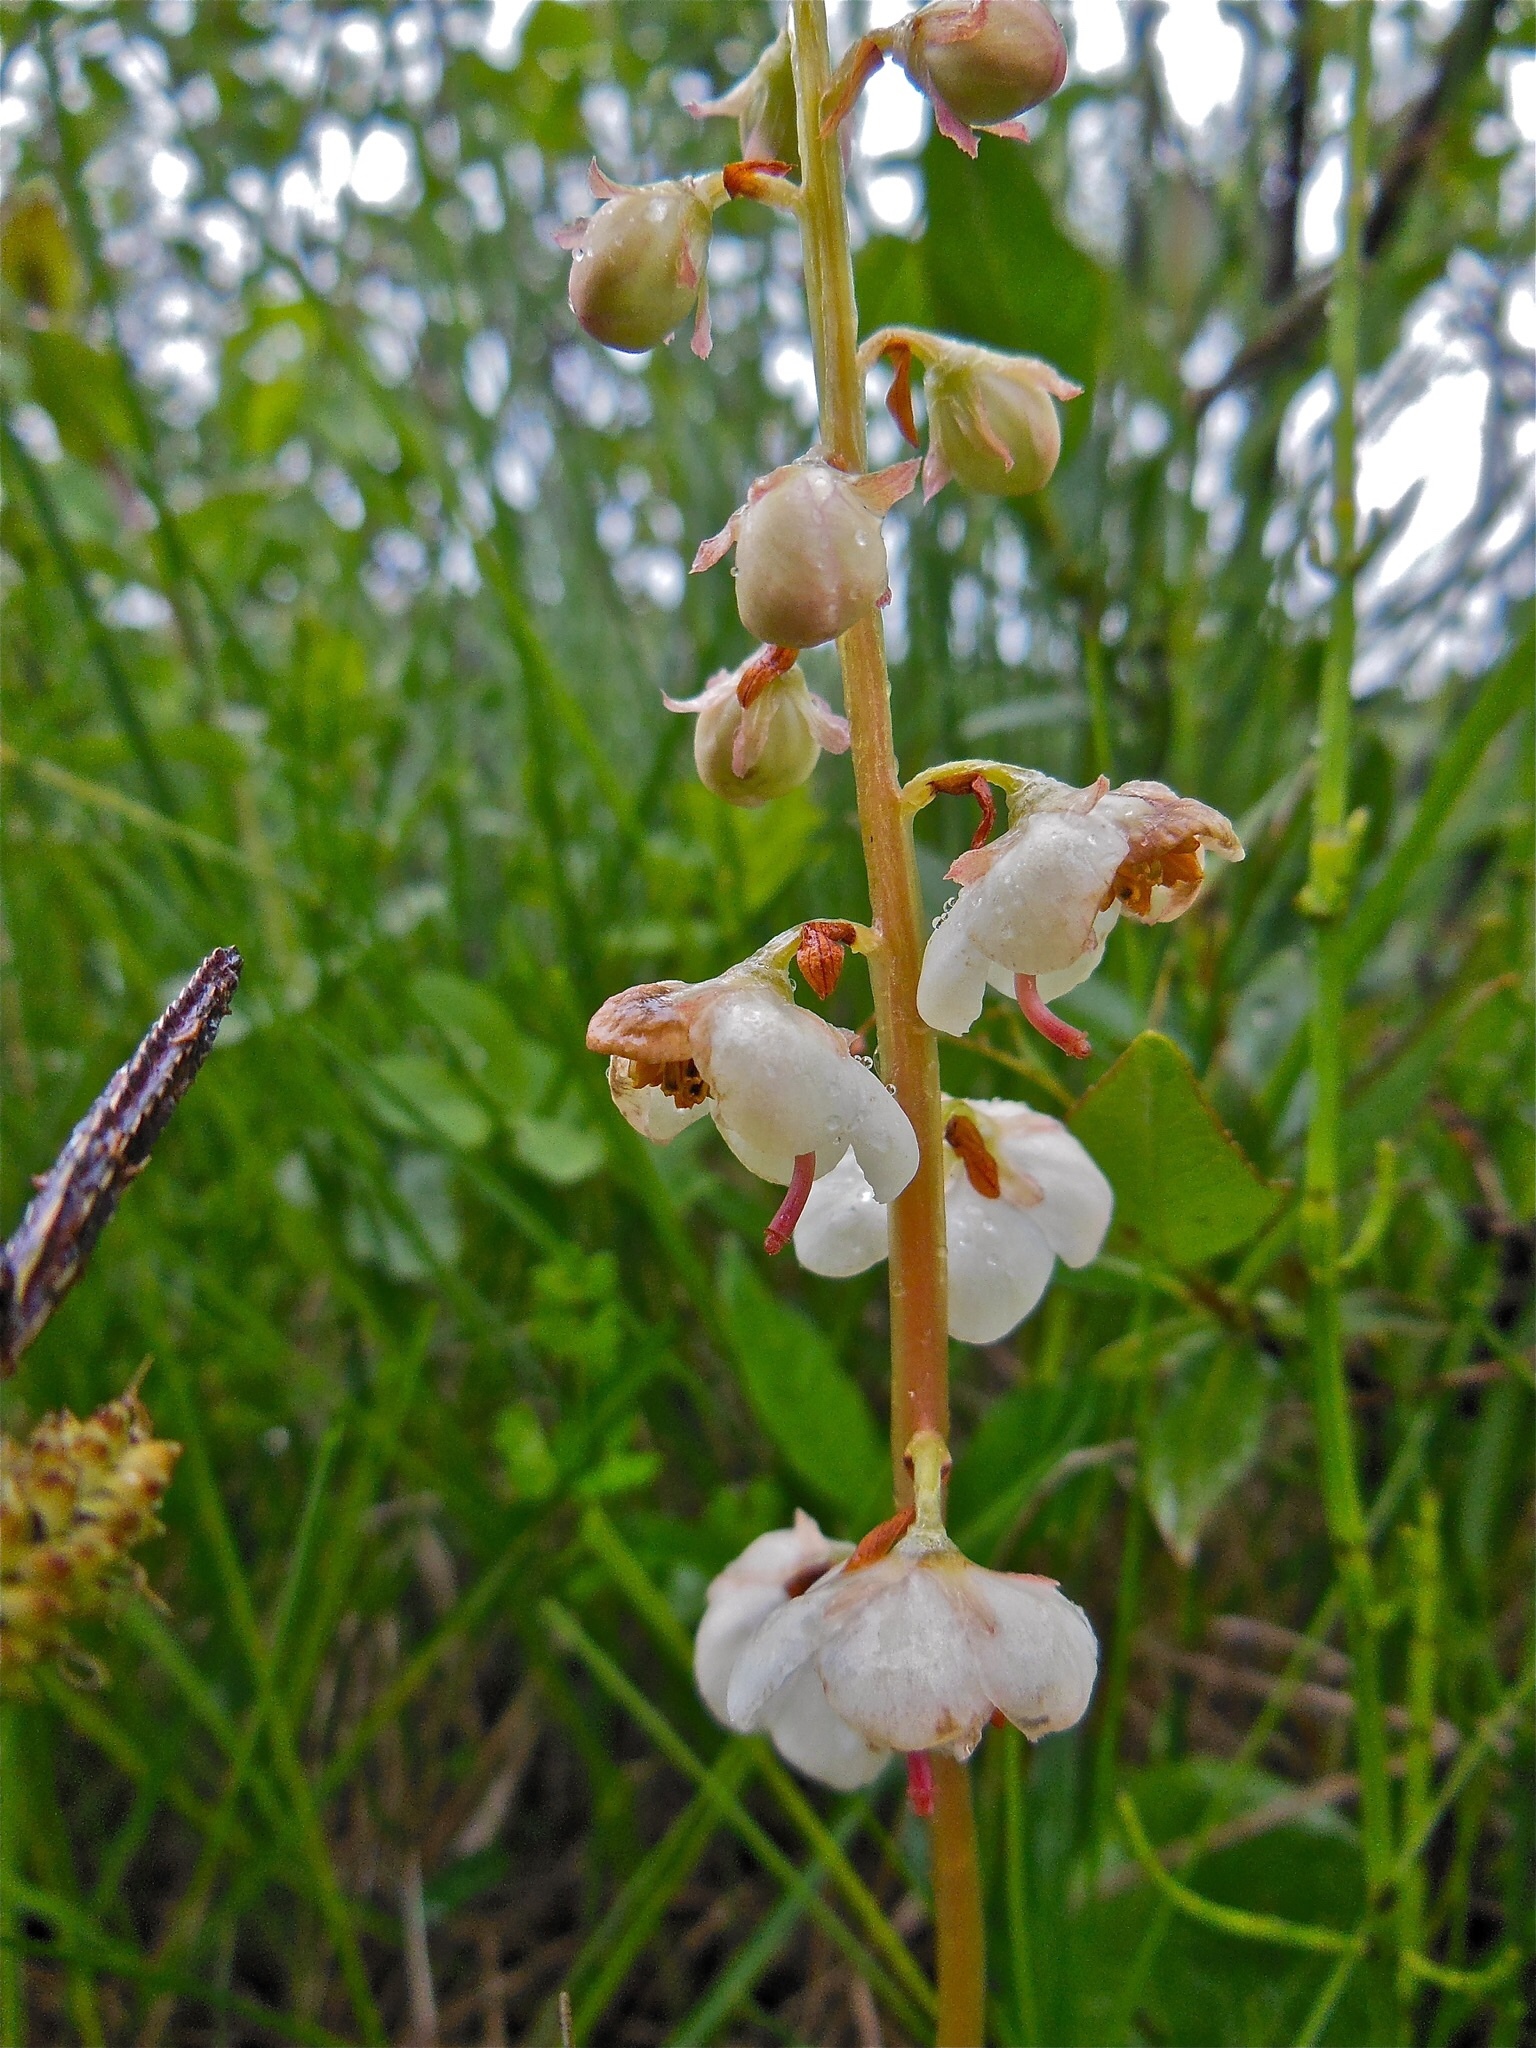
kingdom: Plantae
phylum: Tracheophyta
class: Magnoliopsida
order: Ericales
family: Ericaceae
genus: Pyrola
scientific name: Pyrola rotundifolia
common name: Round-leaved wintergreen
